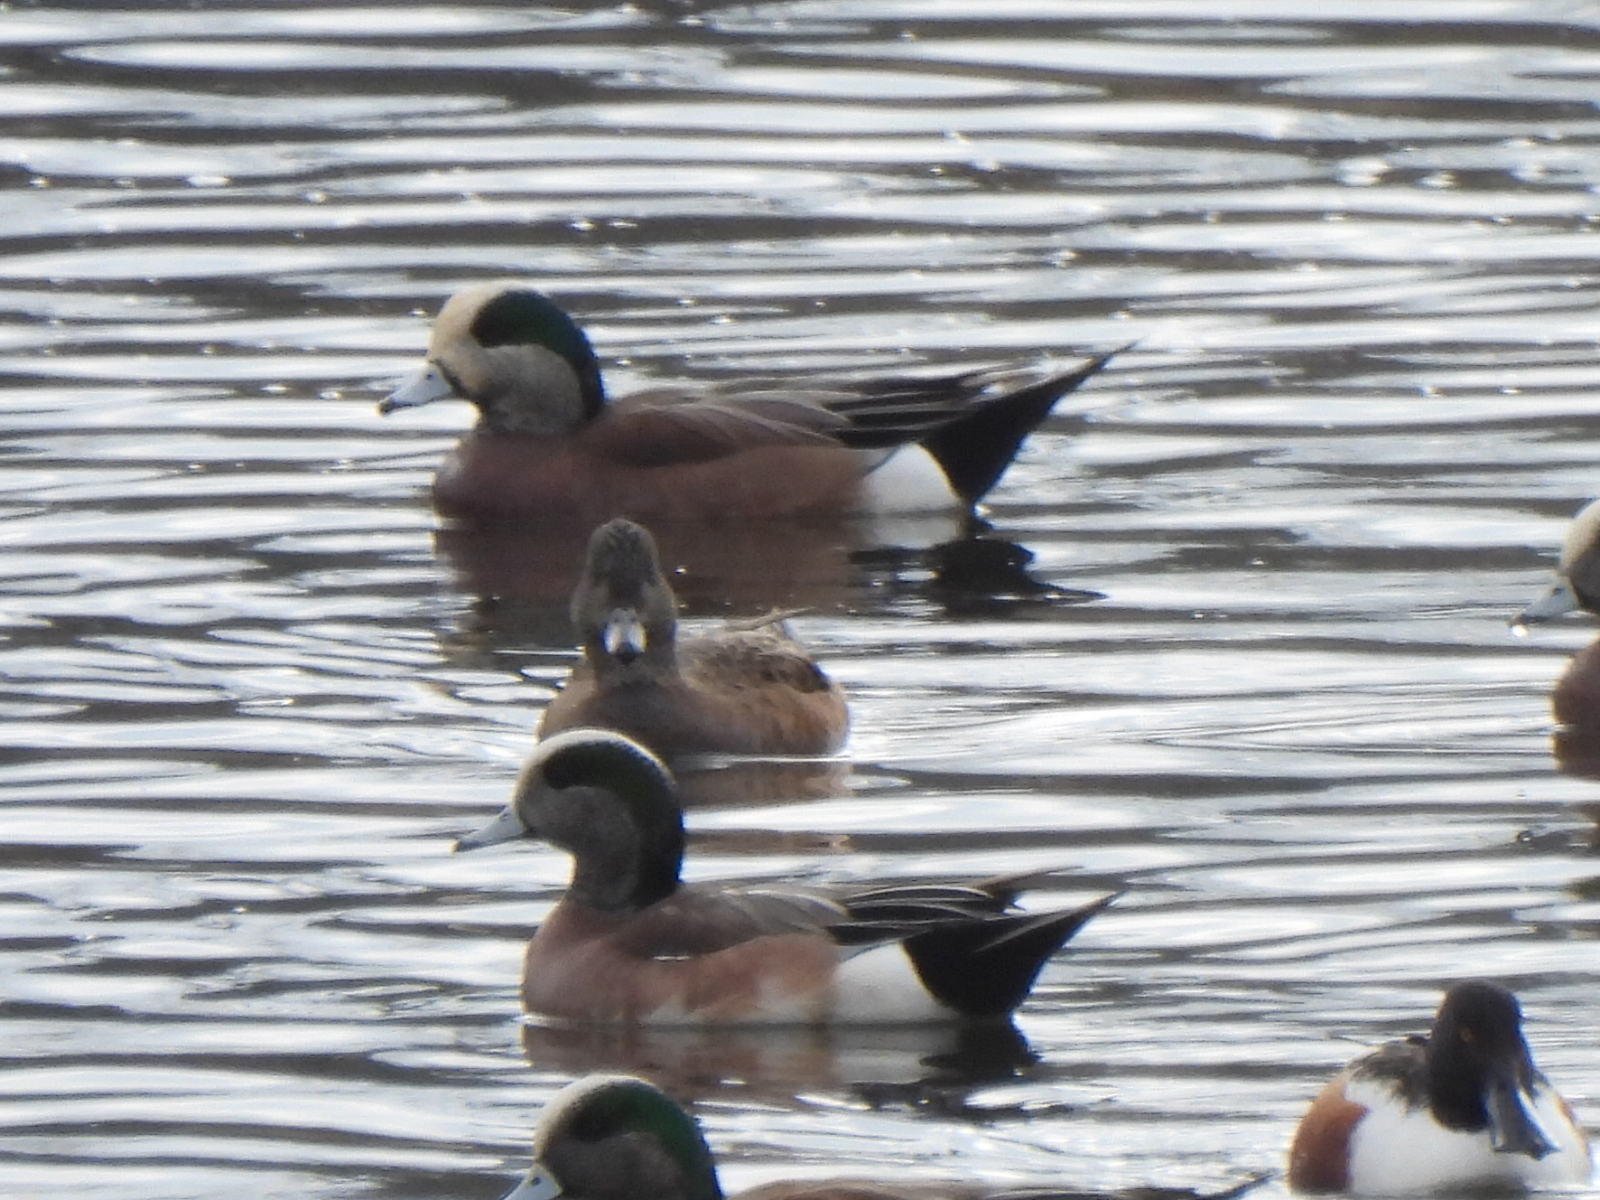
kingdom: Animalia
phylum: Chordata
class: Aves
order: Anseriformes
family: Anatidae
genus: Mareca
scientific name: Mareca americana
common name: American wigeon
